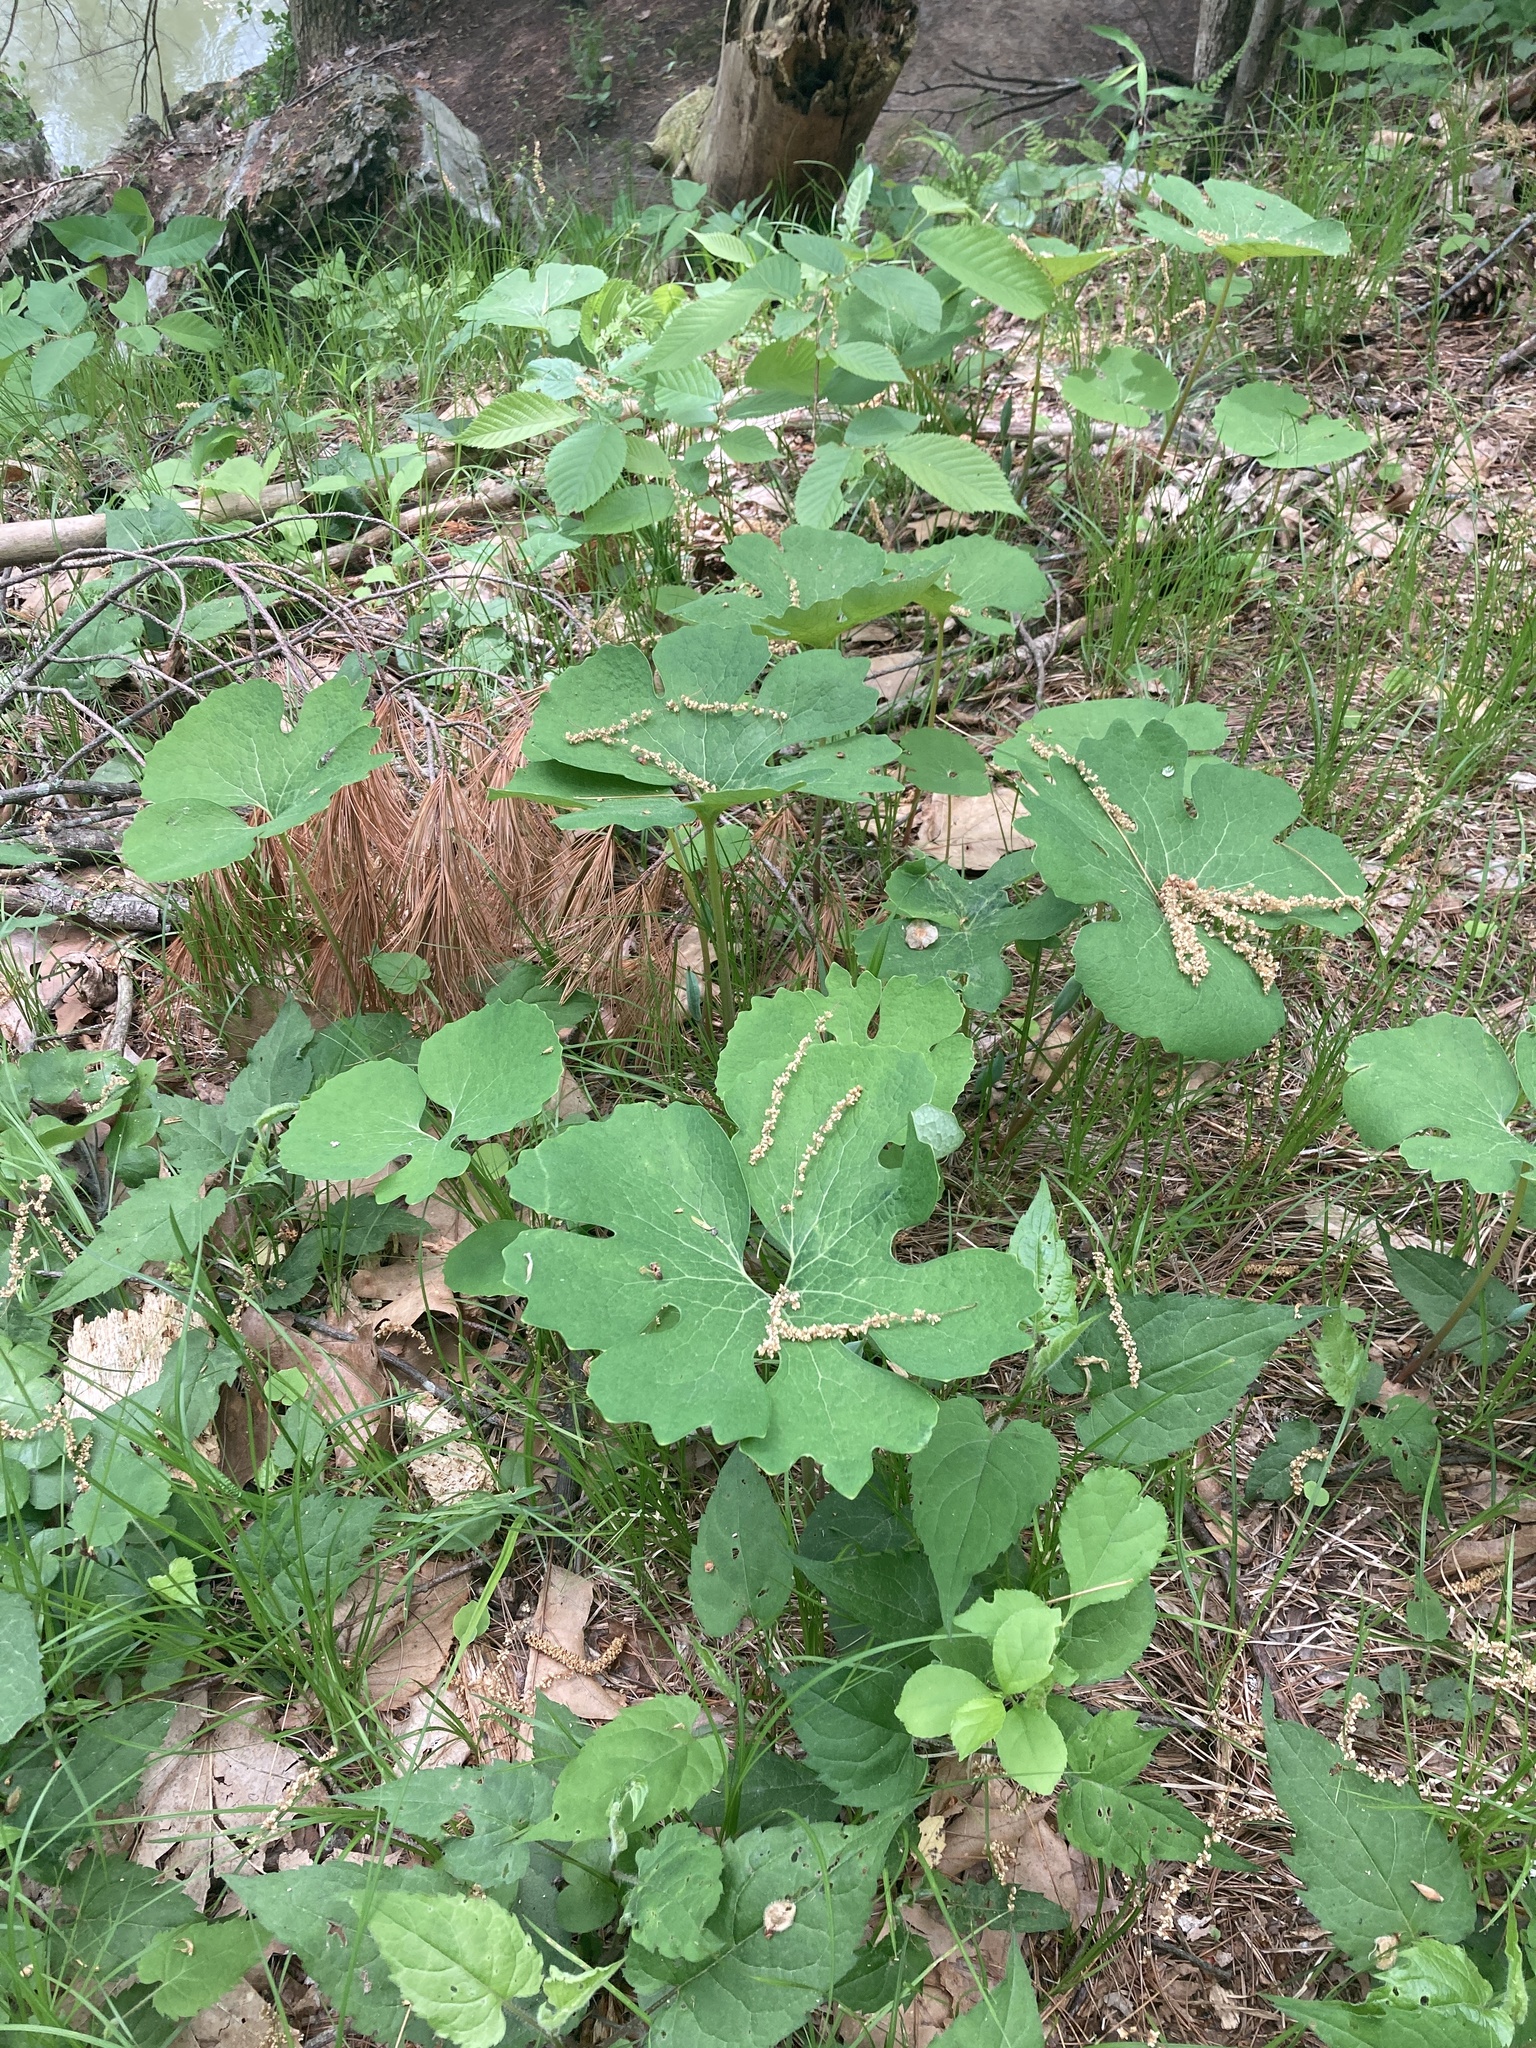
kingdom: Plantae
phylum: Tracheophyta
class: Magnoliopsida
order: Ranunculales
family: Papaveraceae
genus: Sanguinaria
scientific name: Sanguinaria canadensis
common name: Bloodroot
